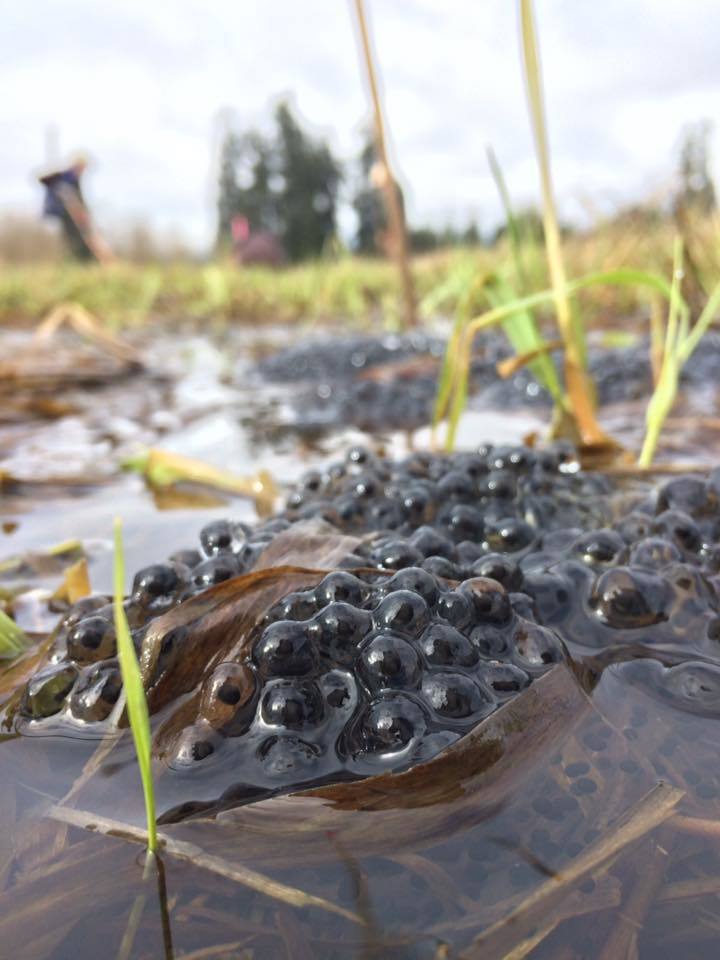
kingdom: Animalia
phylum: Chordata
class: Amphibia
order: Anura
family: Ranidae
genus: Rana
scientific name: Rana pretiosa
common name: Oregon spotted frog
